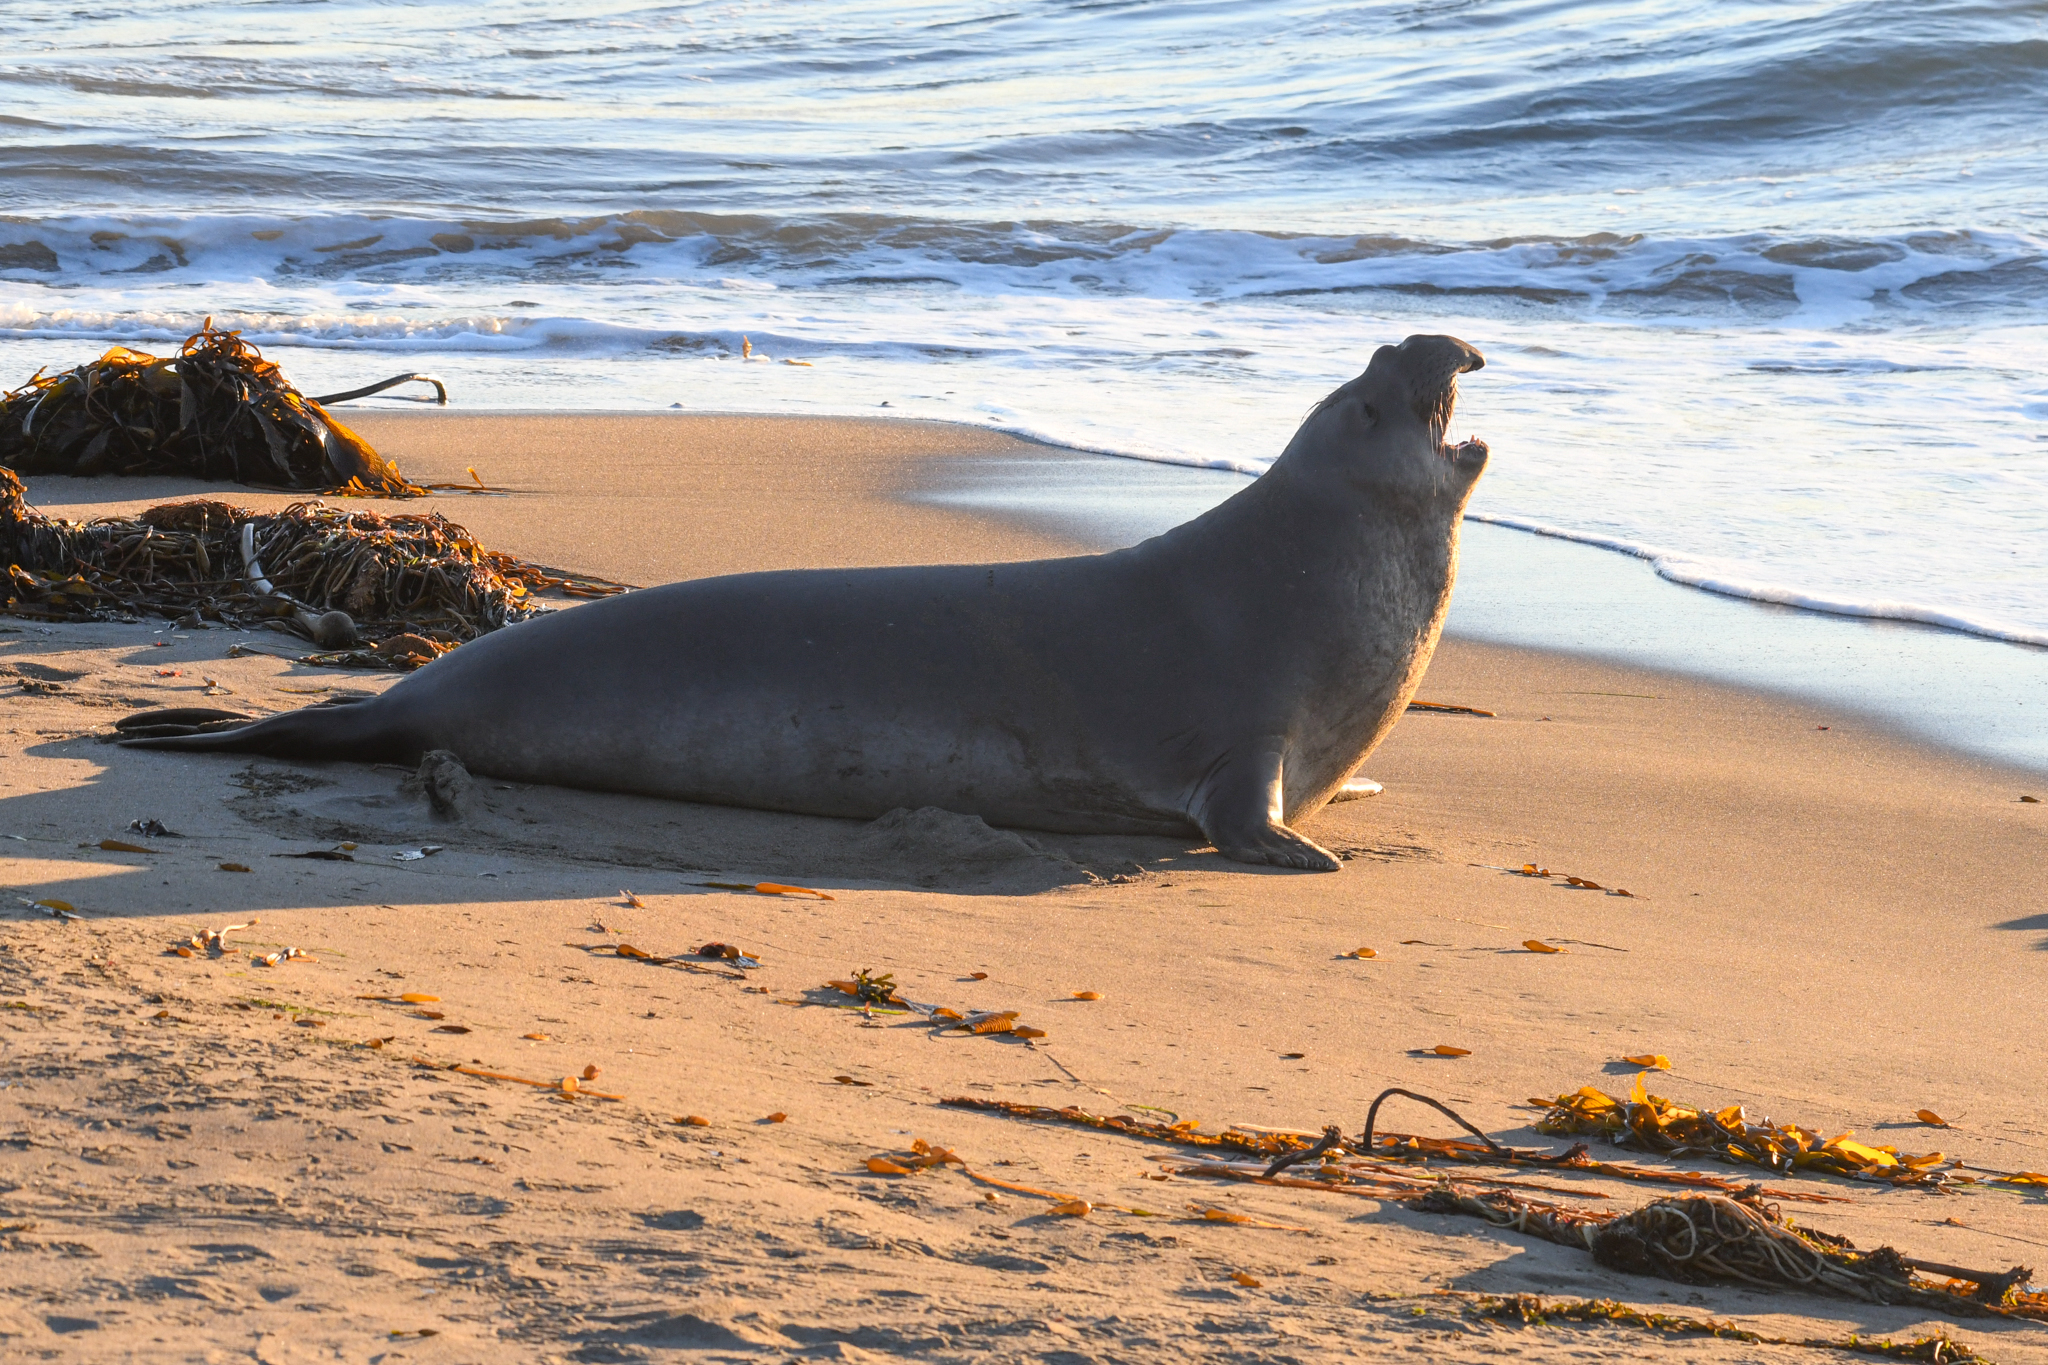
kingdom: Animalia
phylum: Chordata
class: Mammalia
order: Carnivora
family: Phocidae
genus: Mirounga
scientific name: Mirounga angustirostris
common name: Northern elephant seal
